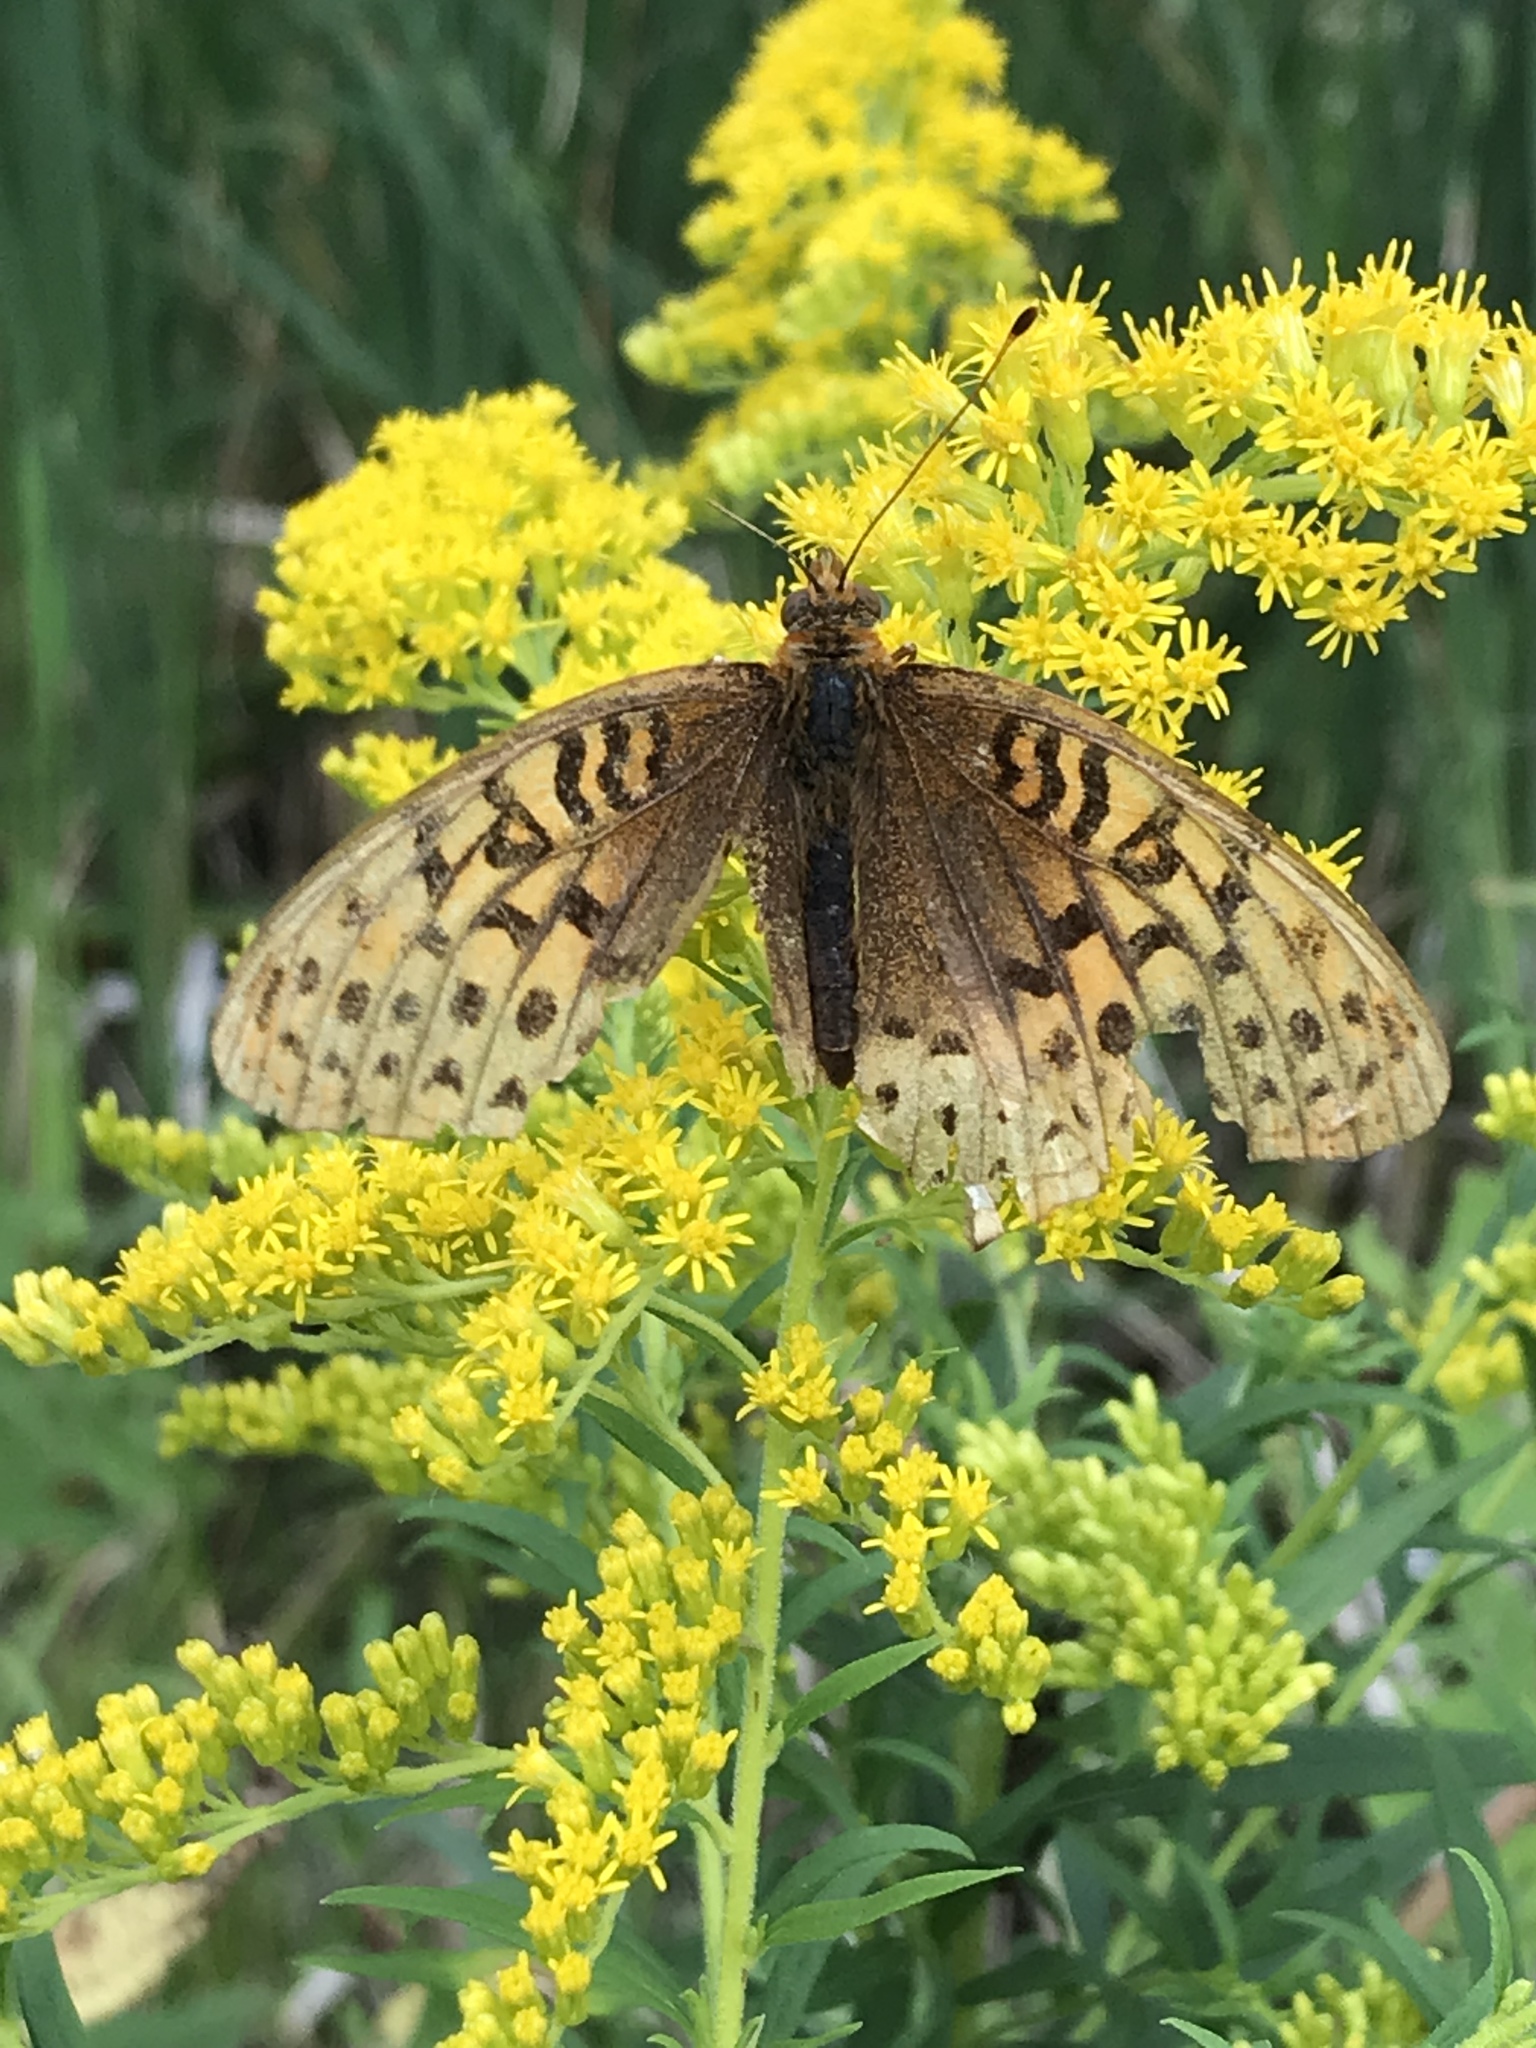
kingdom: Animalia
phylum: Arthropoda
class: Insecta
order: Lepidoptera
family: Nymphalidae
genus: Speyeria
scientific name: Speyeria cybele
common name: Great spangled fritillary
